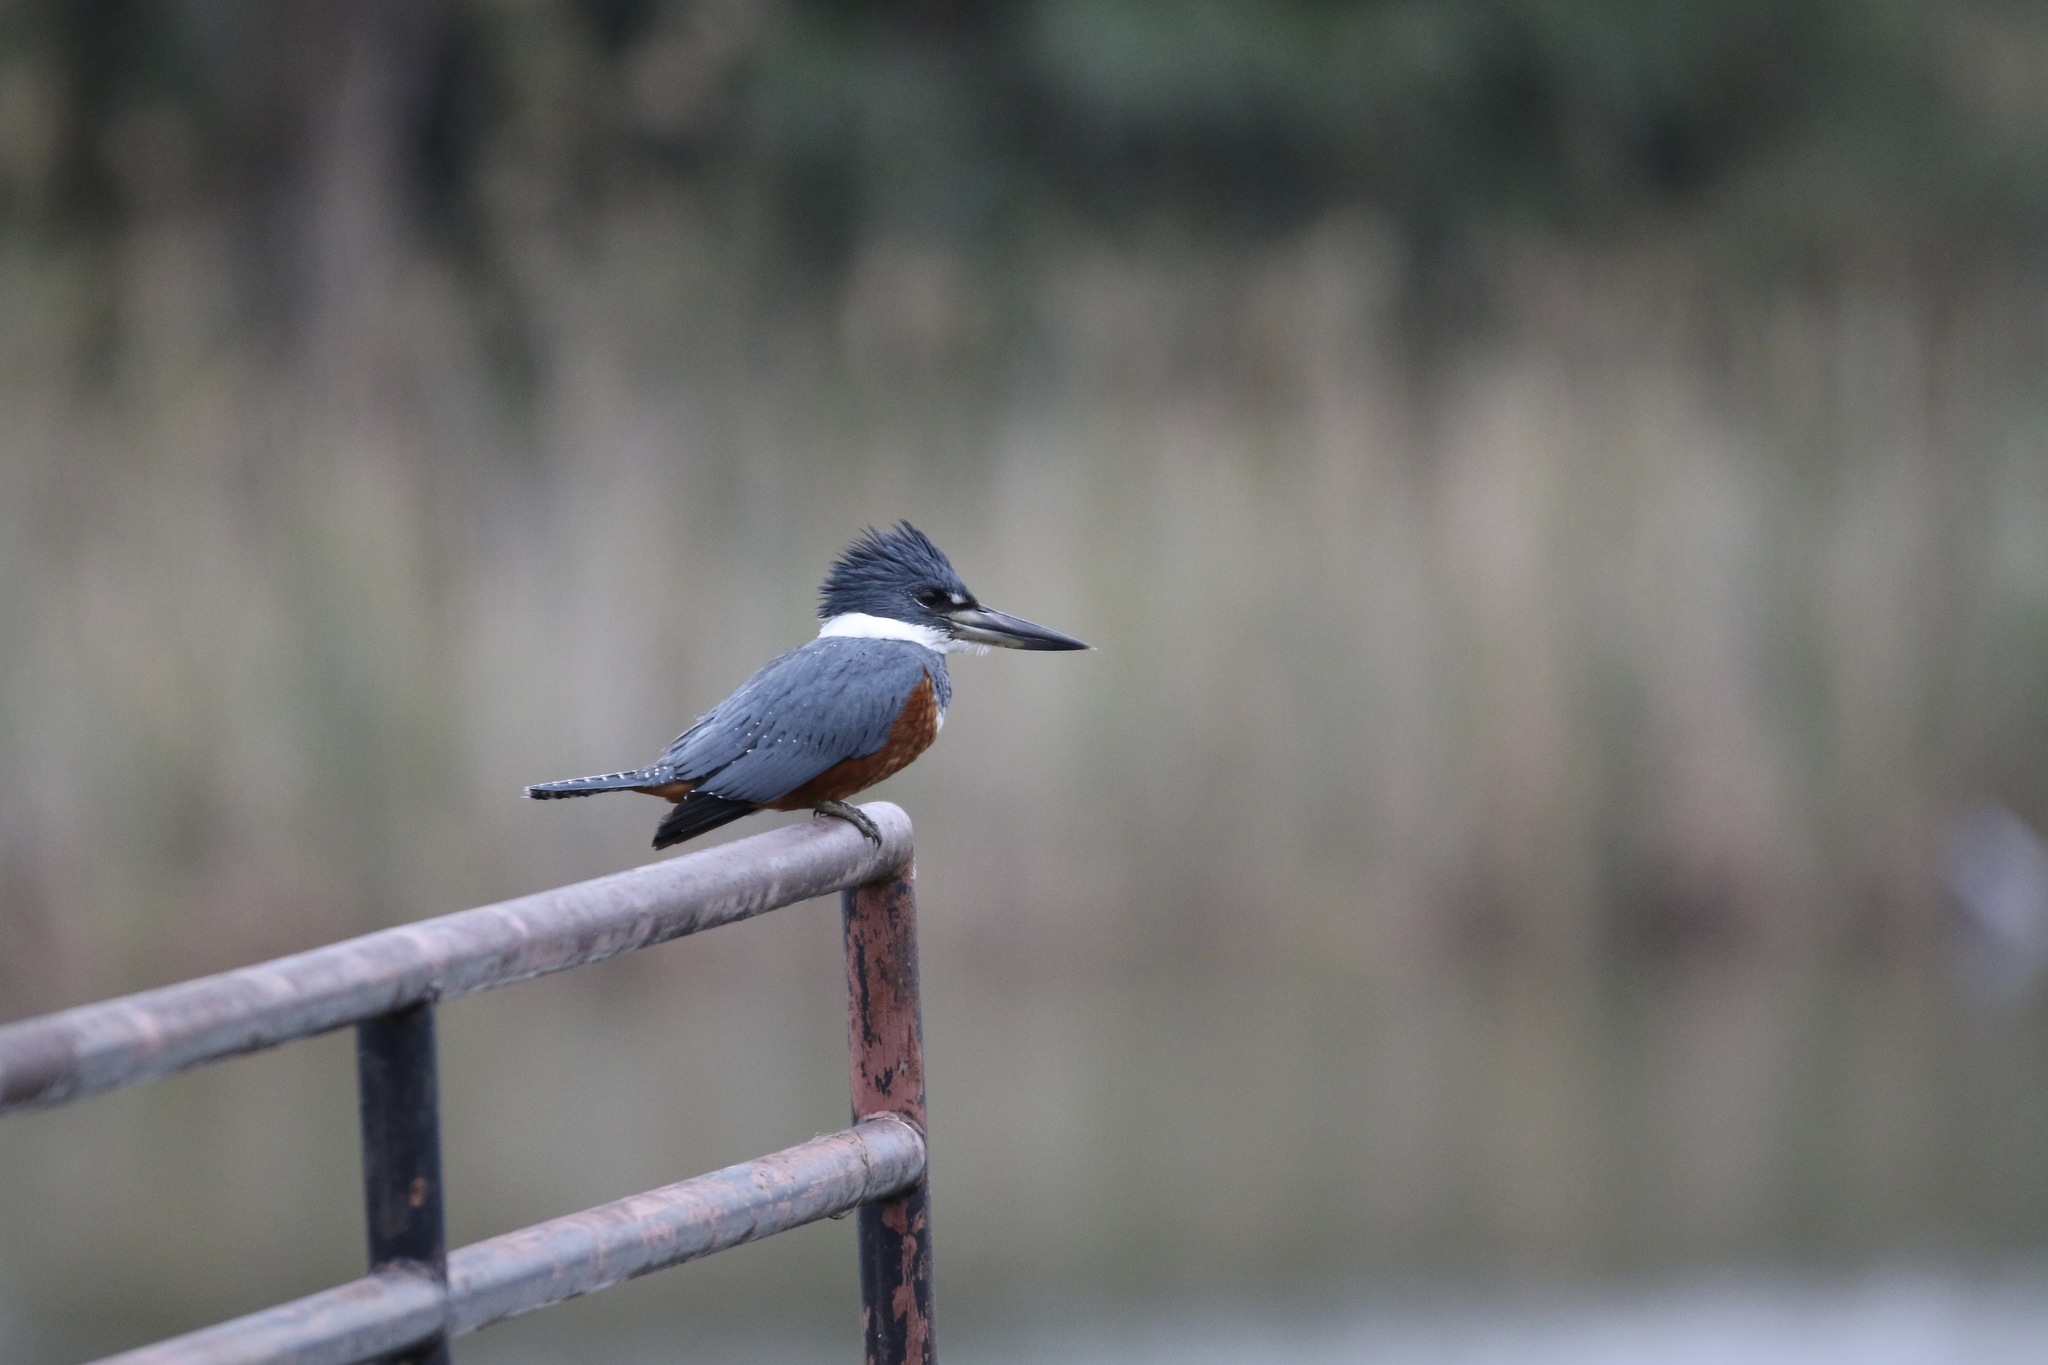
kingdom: Animalia
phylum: Chordata
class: Aves
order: Coraciiformes
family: Alcedinidae
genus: Megaceryle
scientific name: Megaceryle torquata
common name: Ringed kingfisher
